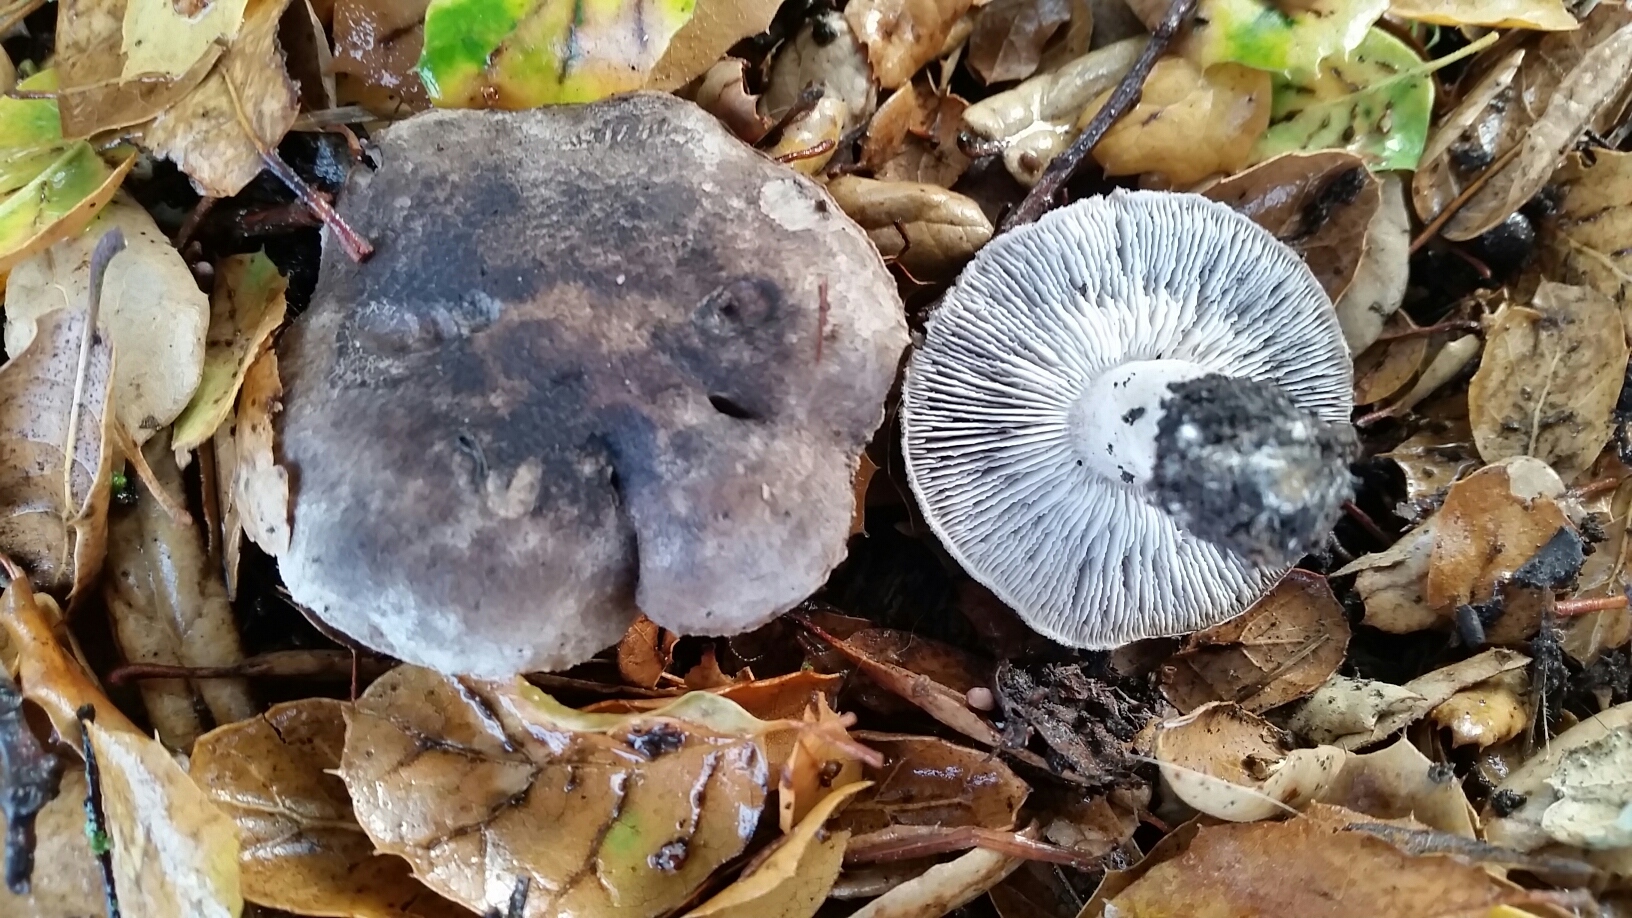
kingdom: Fungi
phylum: Basidiomycota
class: Agaricomycetes
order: Agaricales
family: Tricholomataceae
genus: Tricholoma
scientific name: Tricholoma terreum
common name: Grey knight
